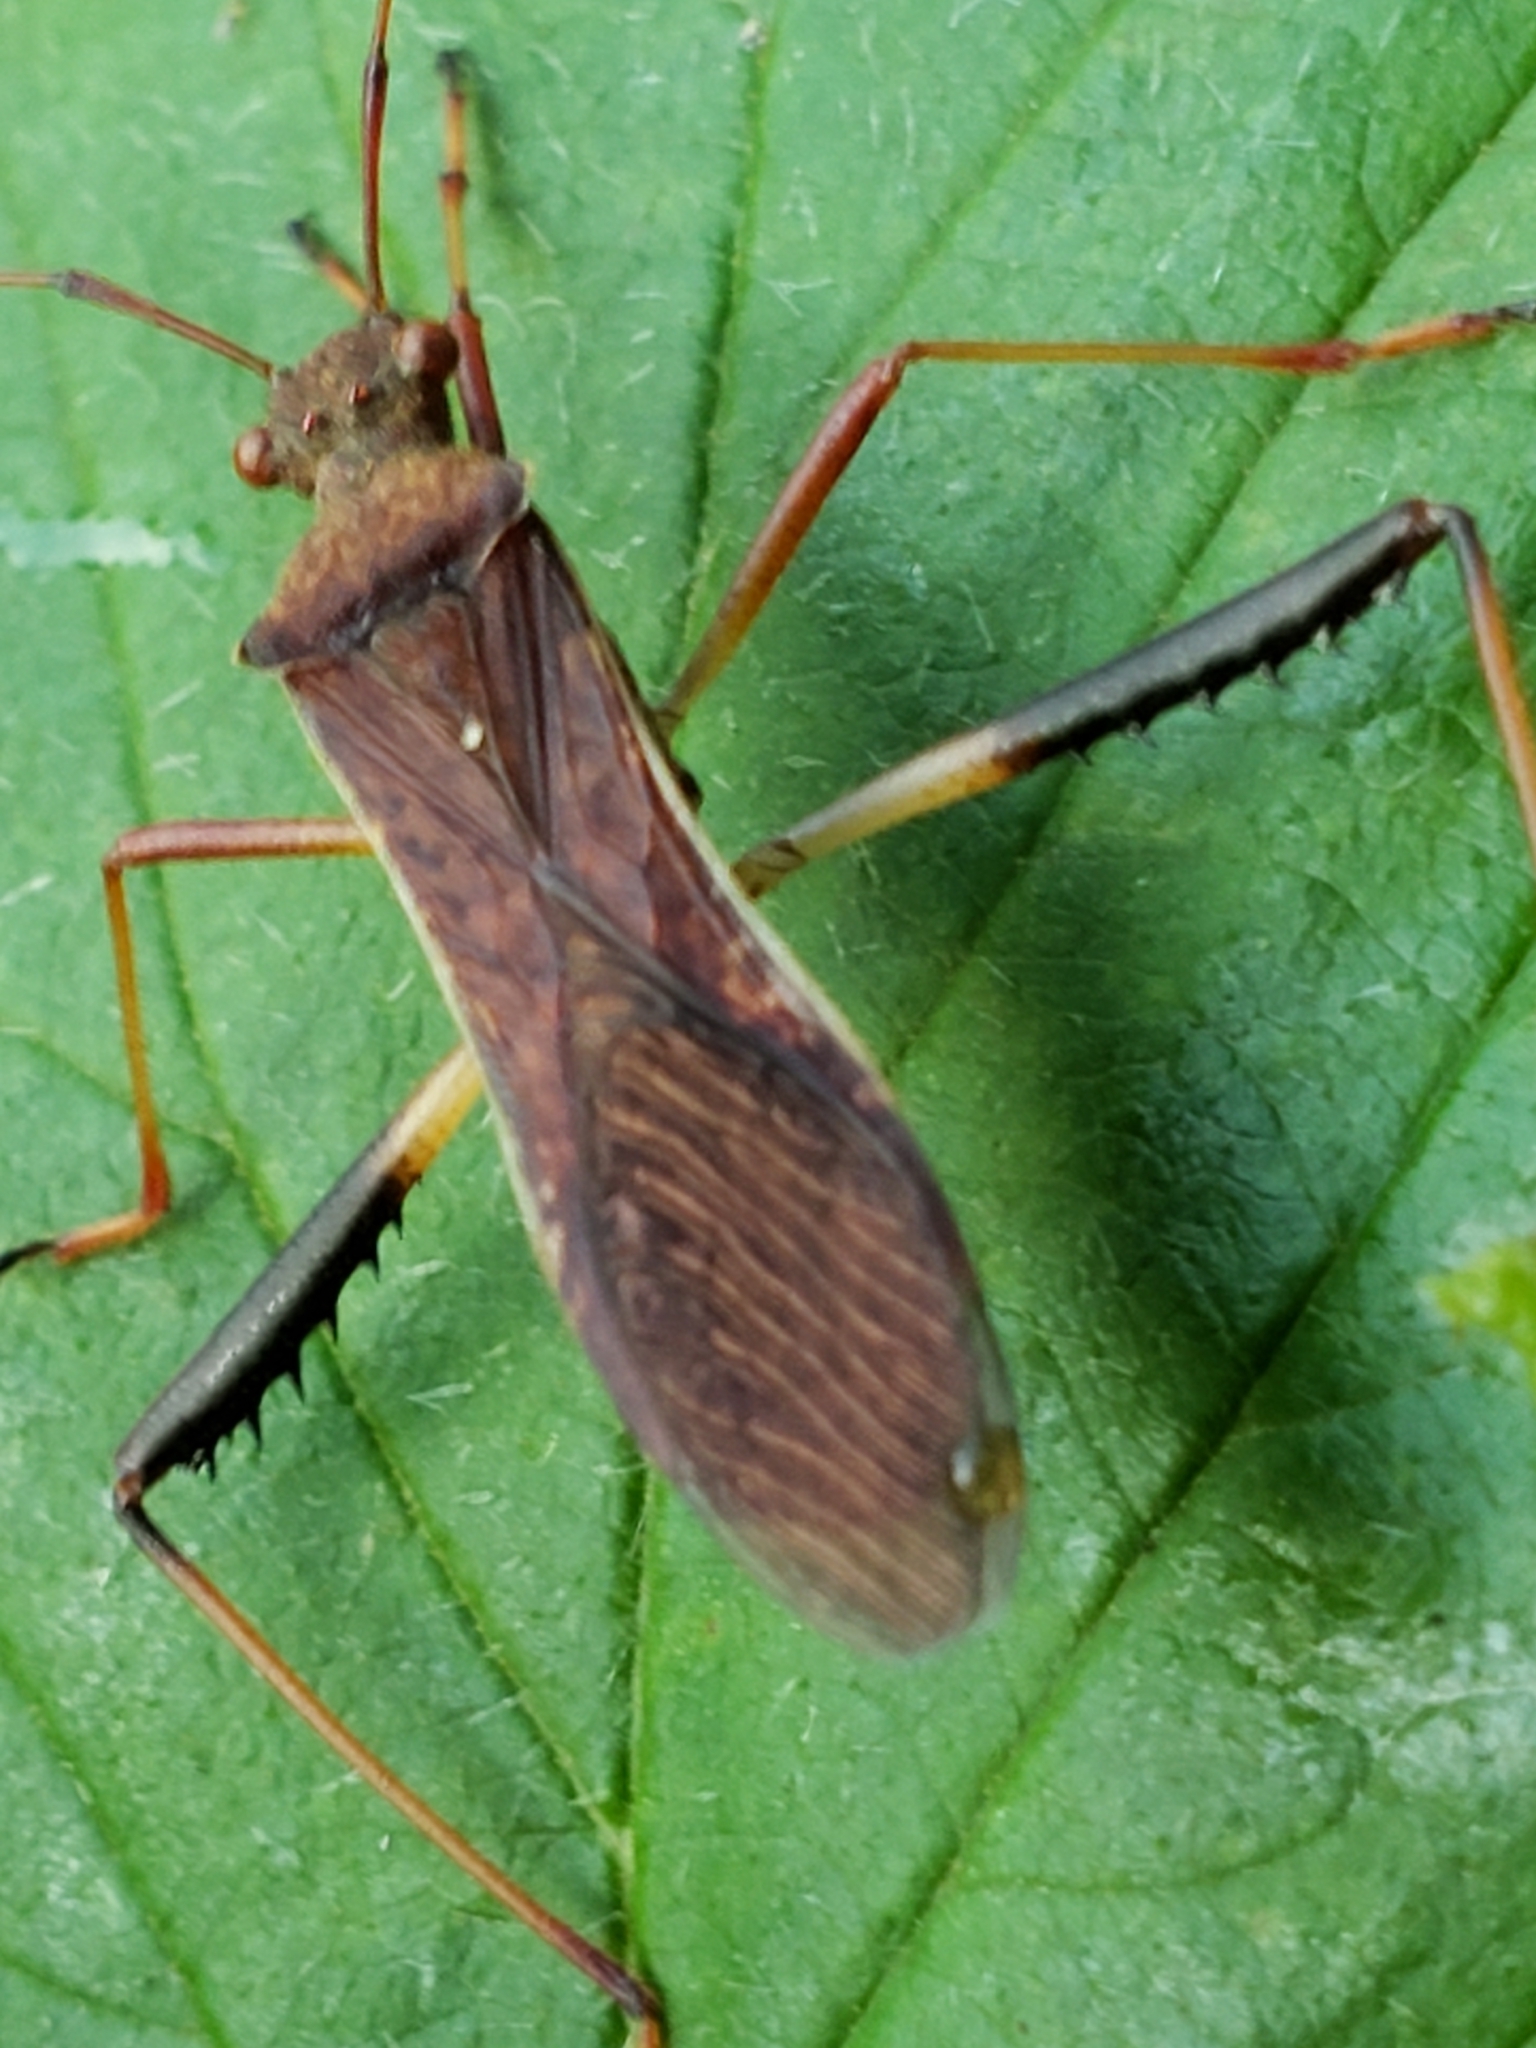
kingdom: Animalia
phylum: Arthropoda
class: Insecta
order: Hemiptera
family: Alydidae
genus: Megalotomus
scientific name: Megalotomus quinquespinosus
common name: Lupine bug
